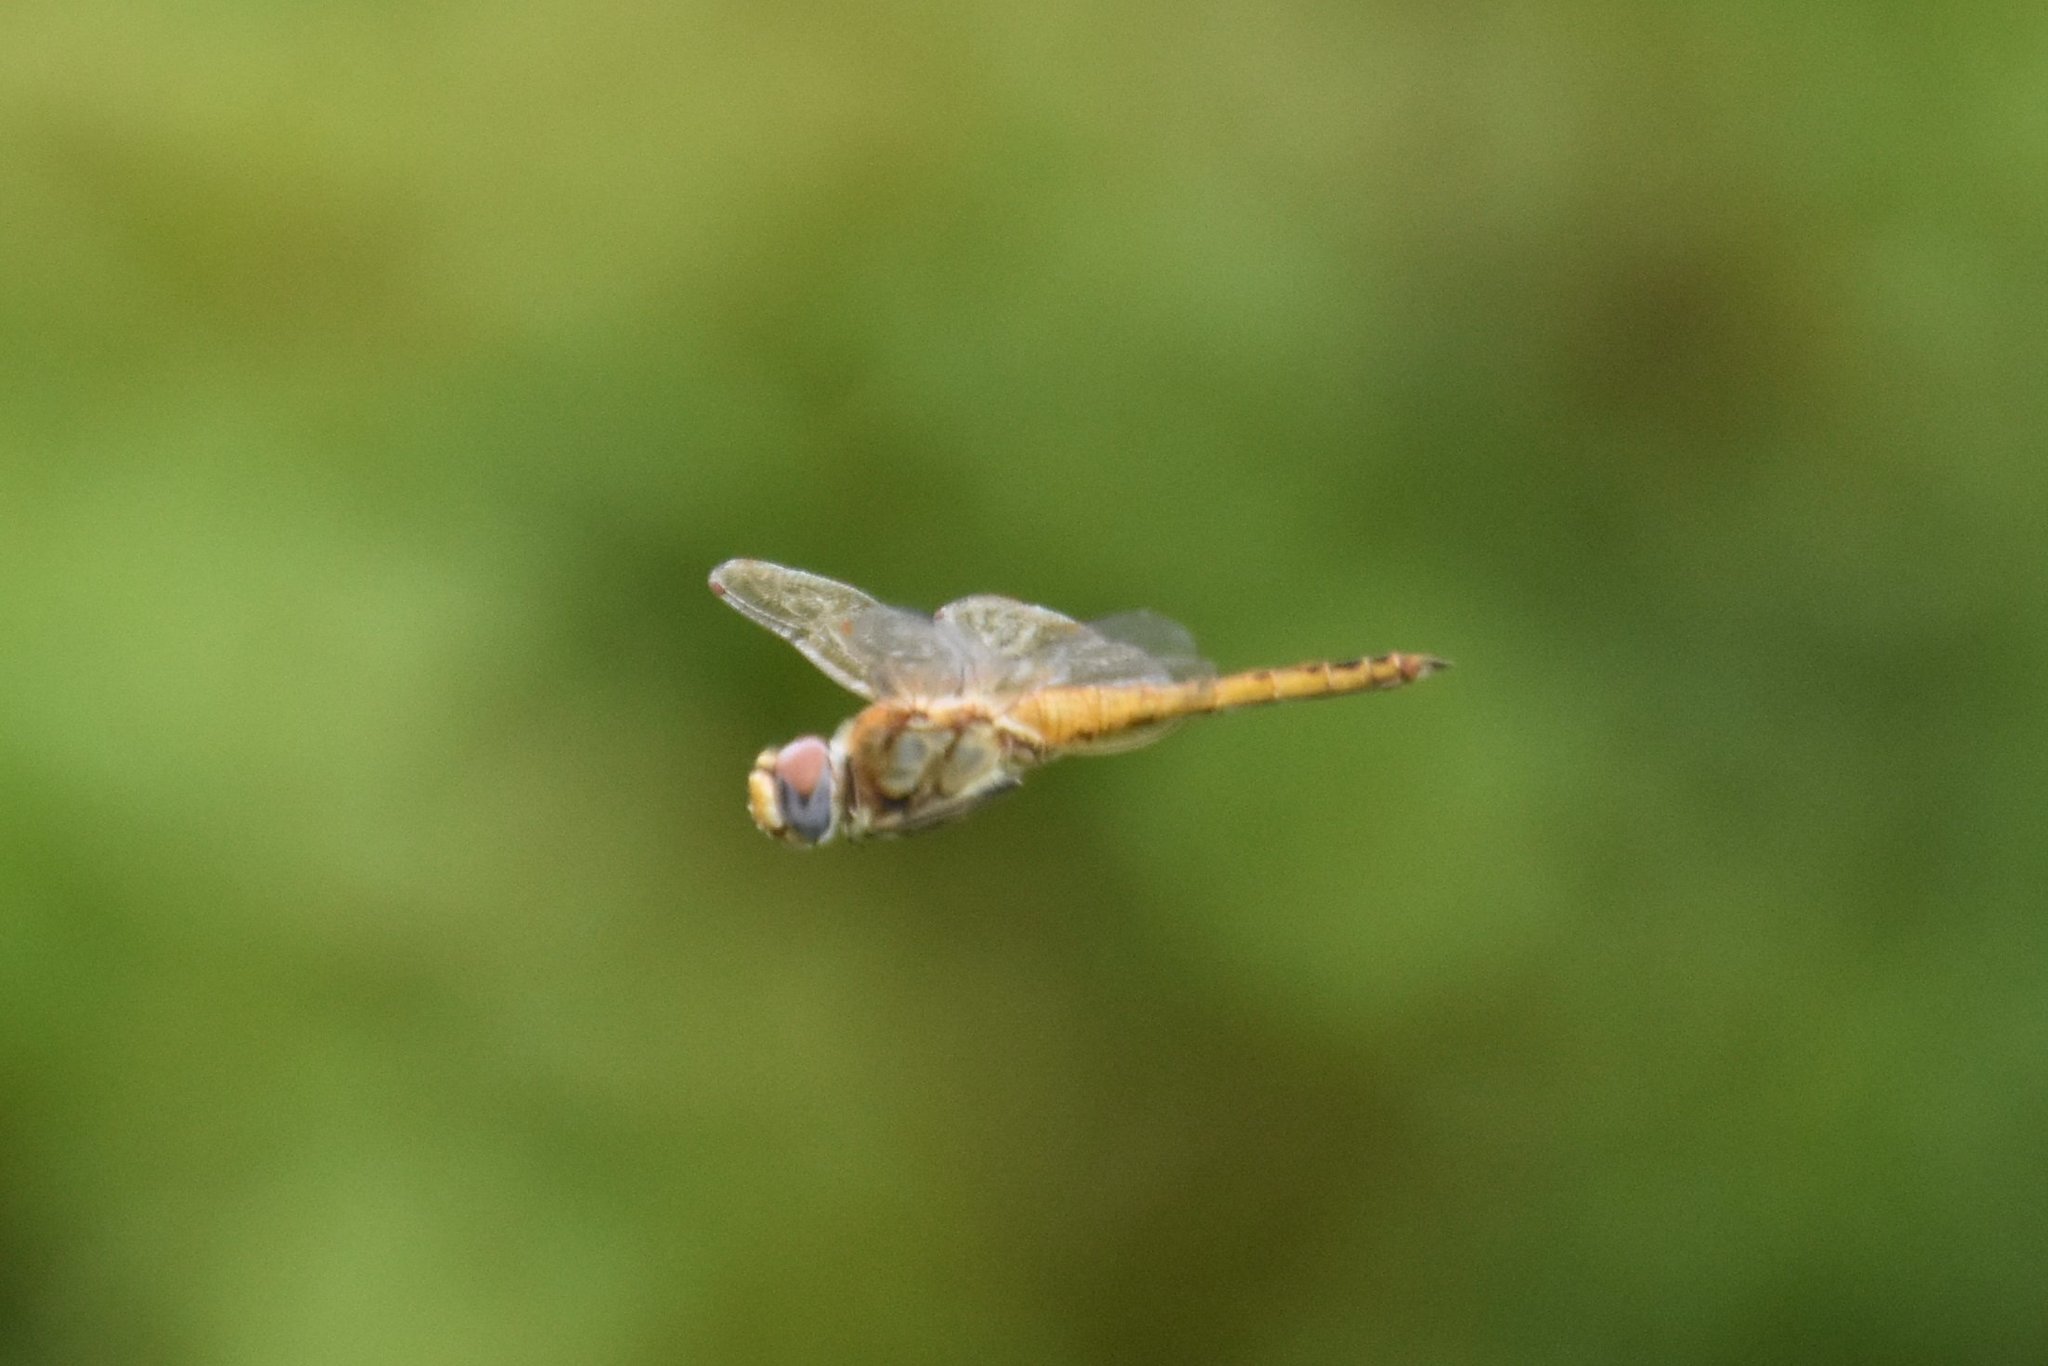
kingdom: Animalia
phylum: Arthropoda
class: Insecta
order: Odonata
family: Libellulidae
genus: Pantala
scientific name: Pantala flavescens
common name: Wandering glider
